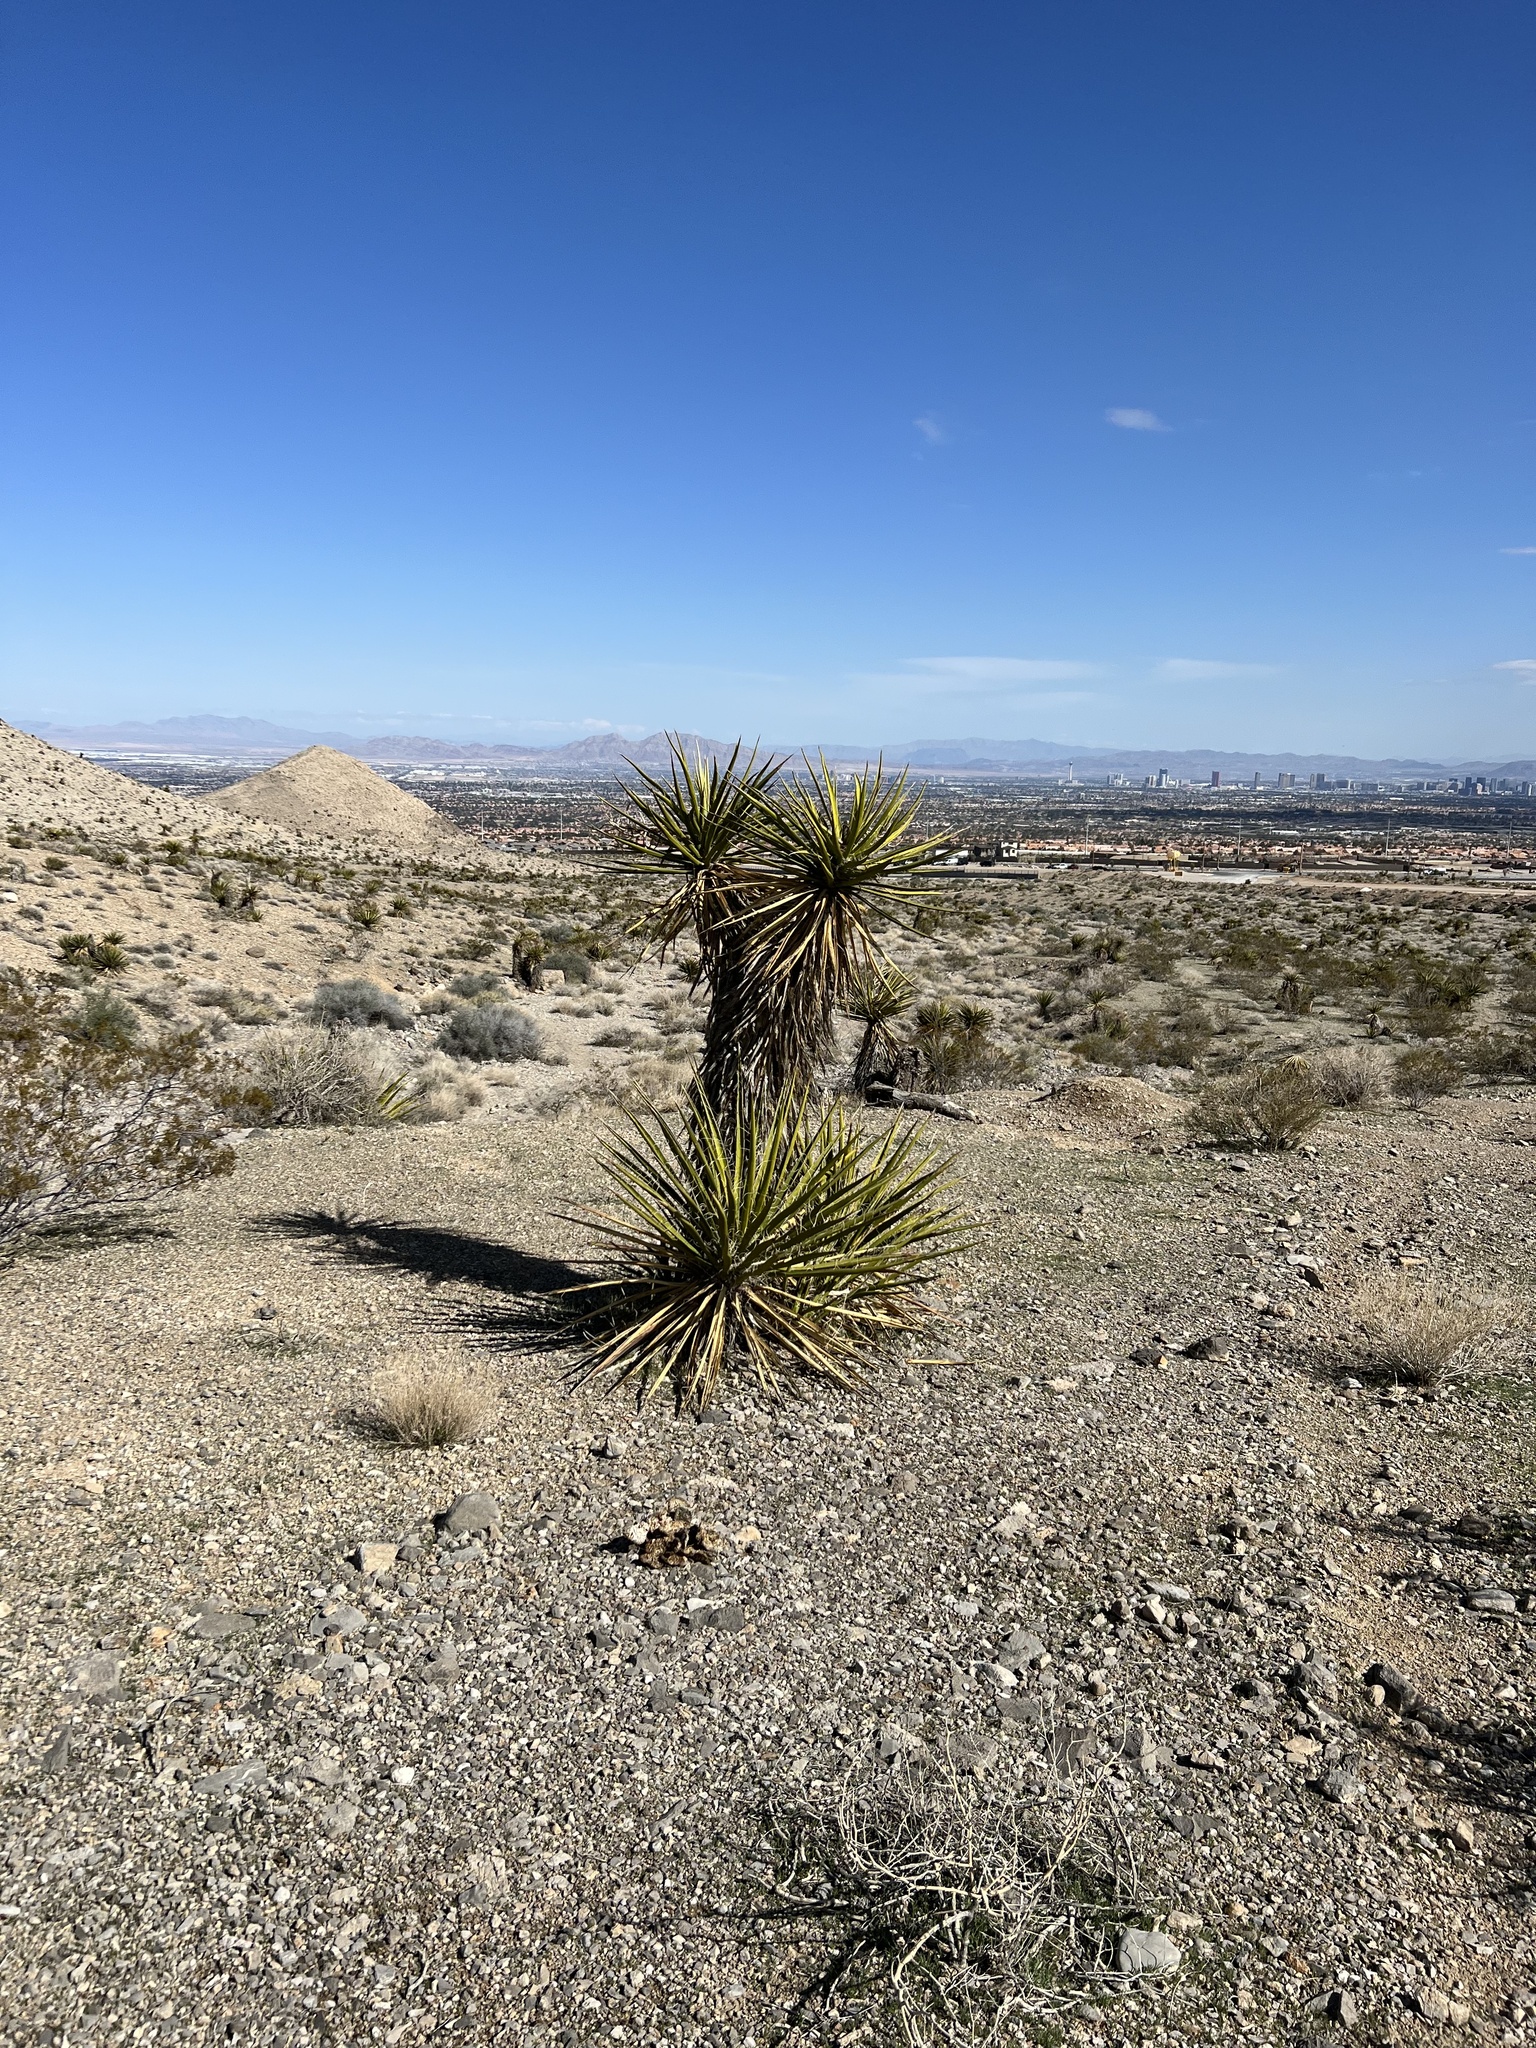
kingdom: Plantae
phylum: Tracheophyta
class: Liliopsida
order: Asparagales
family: Asparagaceae
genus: Yucca
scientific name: Yucca schidigera
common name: Mojave yucca
